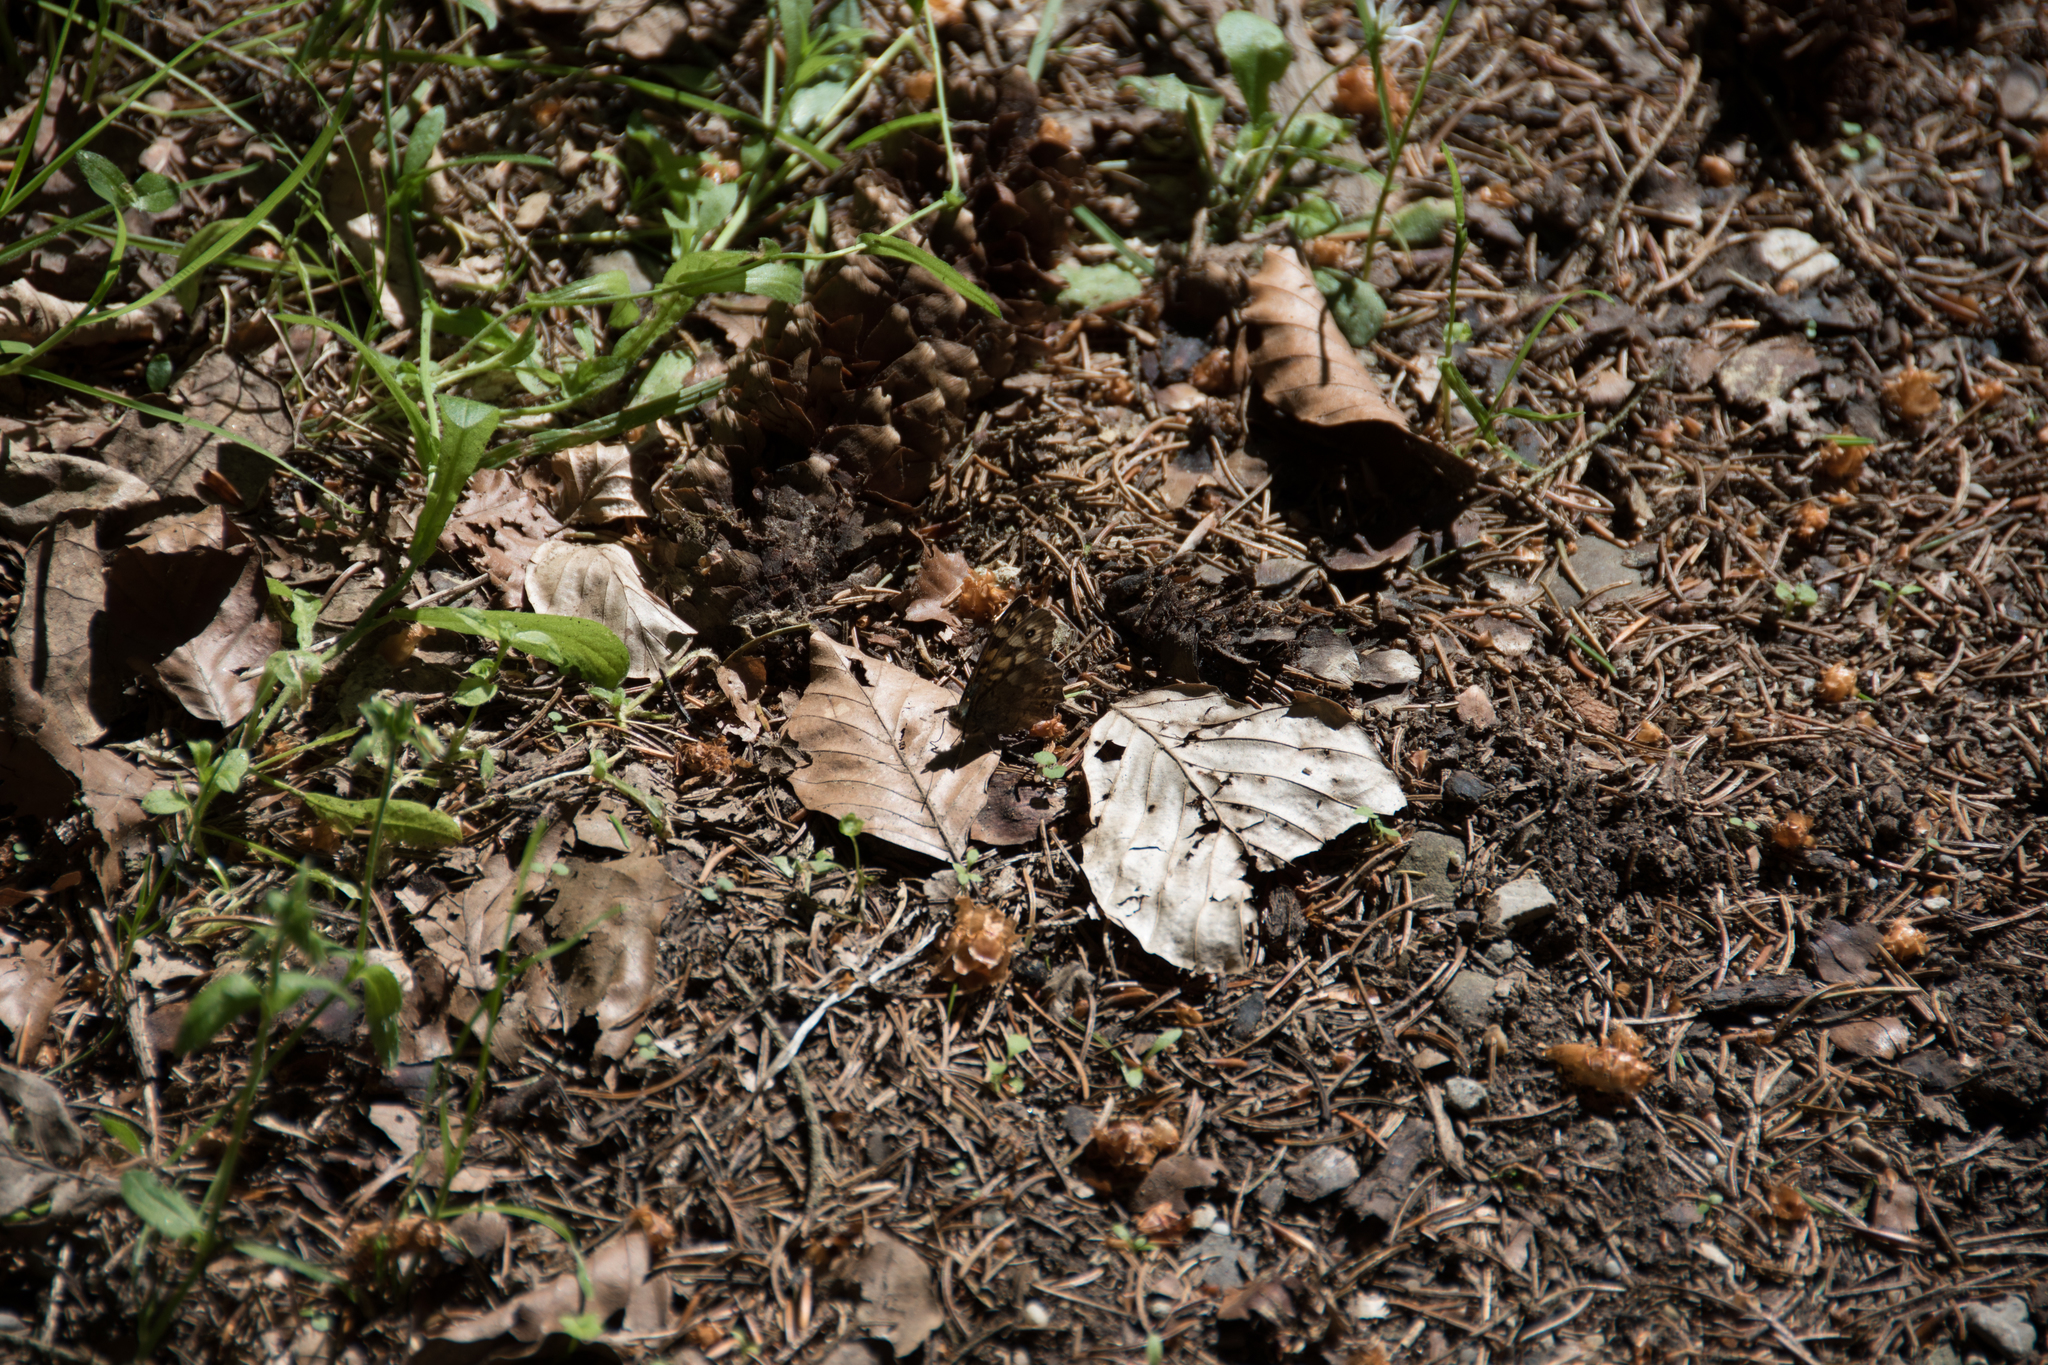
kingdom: Animalia
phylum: Arthropoda
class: Insecta
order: Lepidoptera
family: Nymphalidae
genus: Pararge
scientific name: Pararge aegeria
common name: Speckled wood
